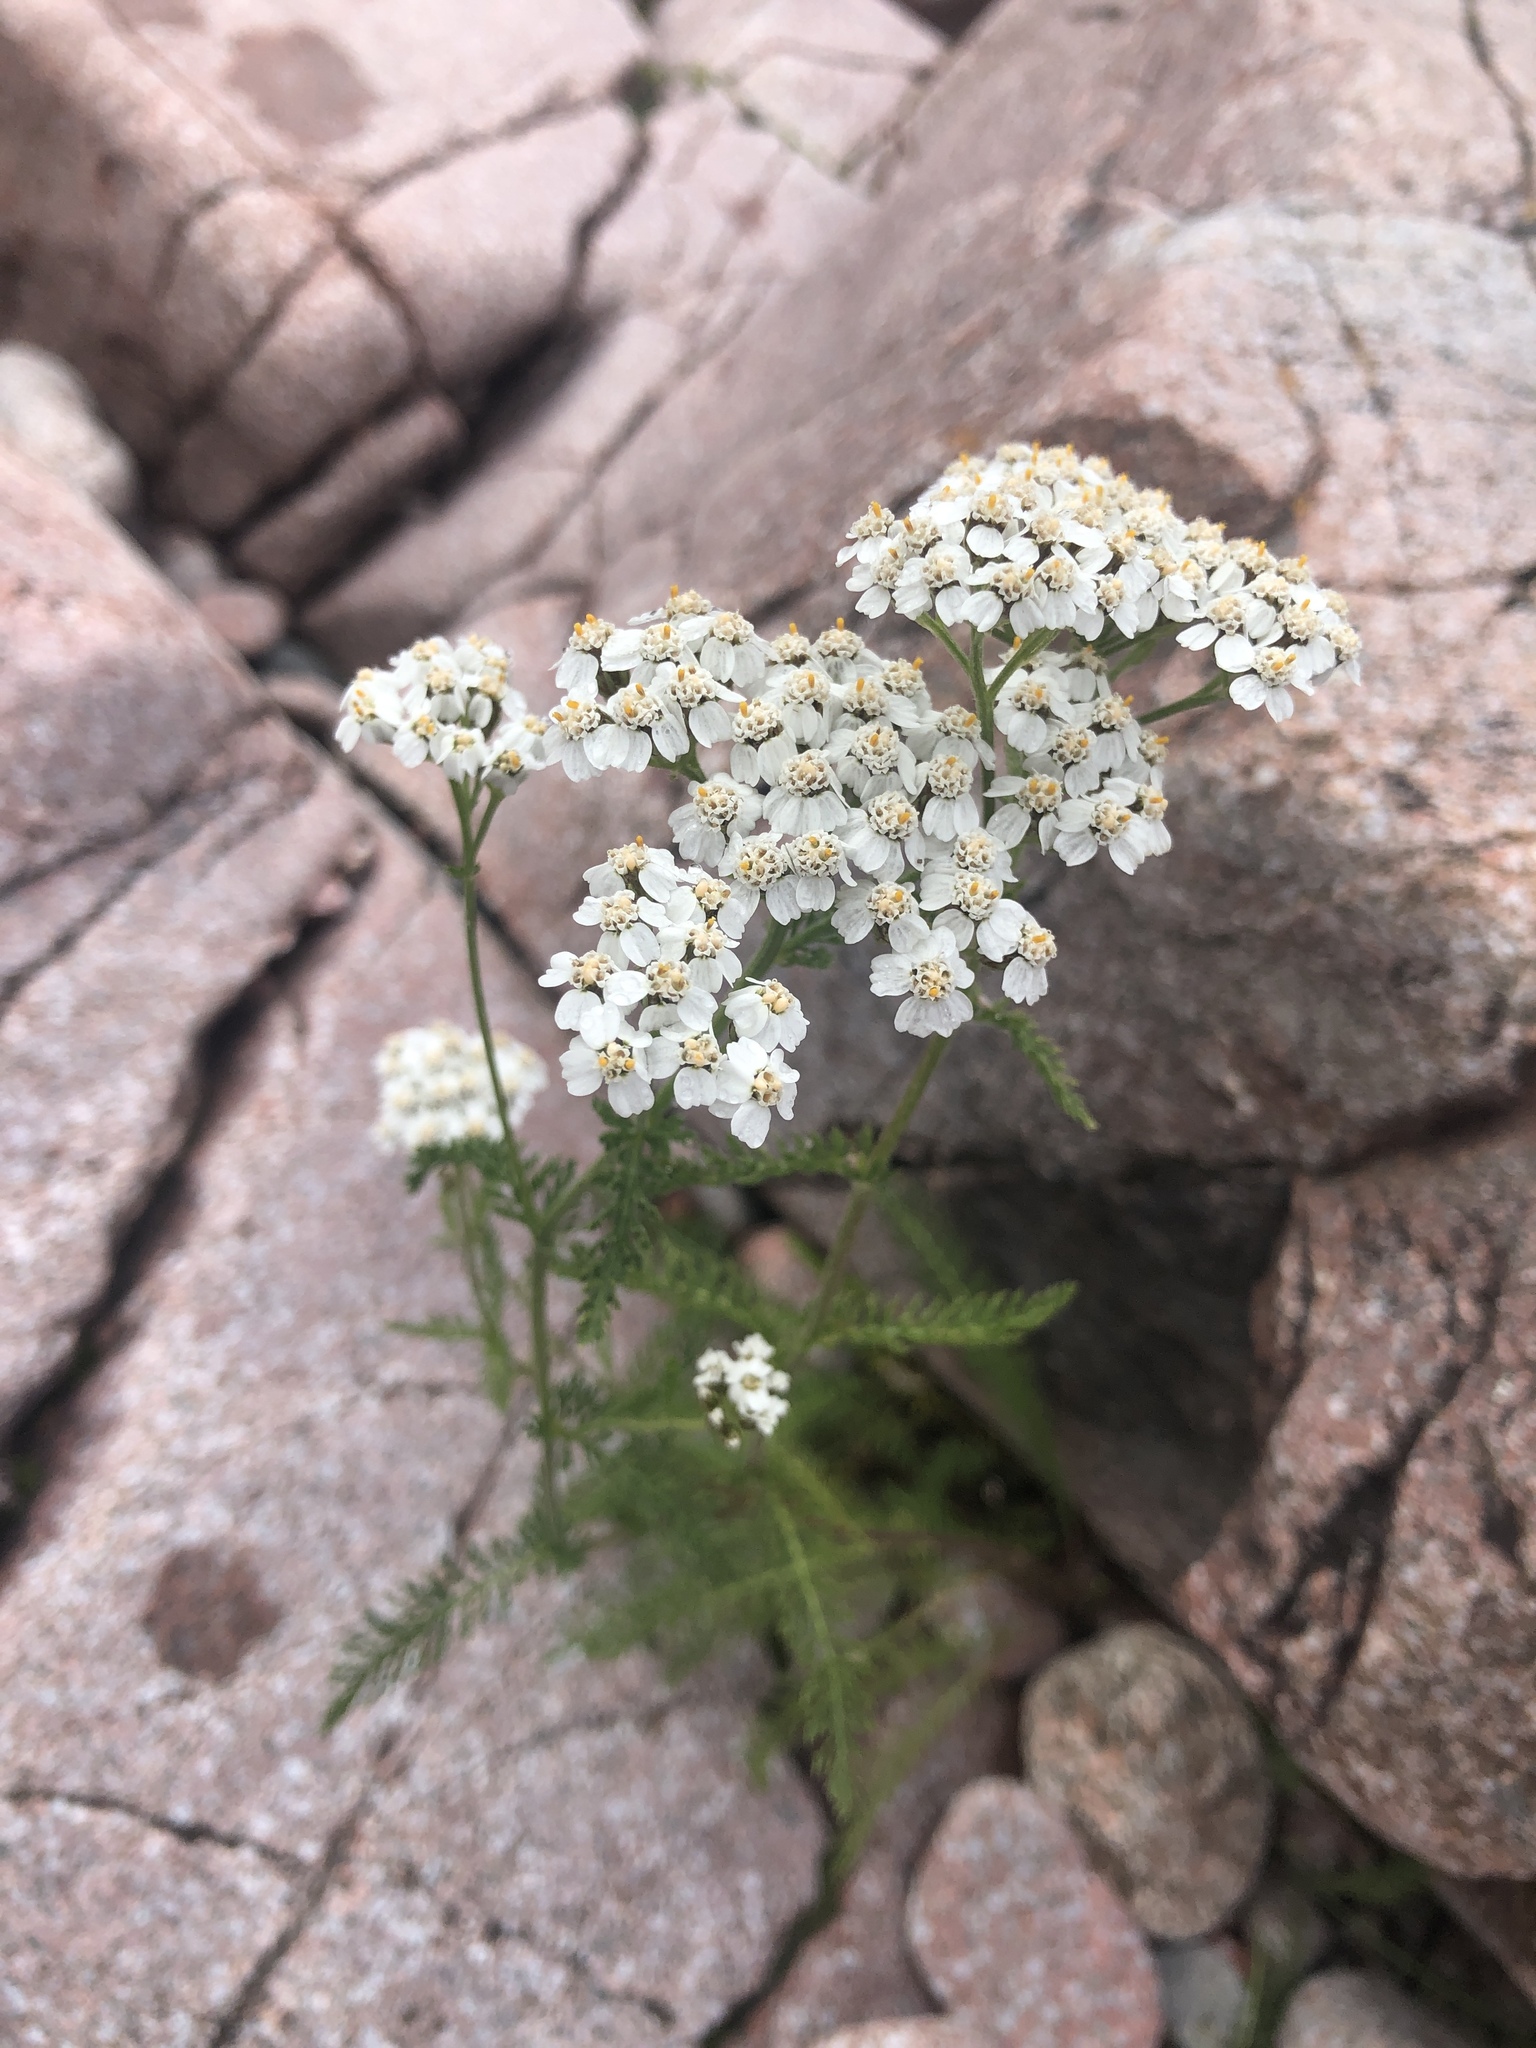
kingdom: Plantae
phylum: Tracheophyta
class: Magnoliopsida
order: Asterales
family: Asteraceae
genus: Achillea
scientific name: Achillea millefolium
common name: Yarrow
